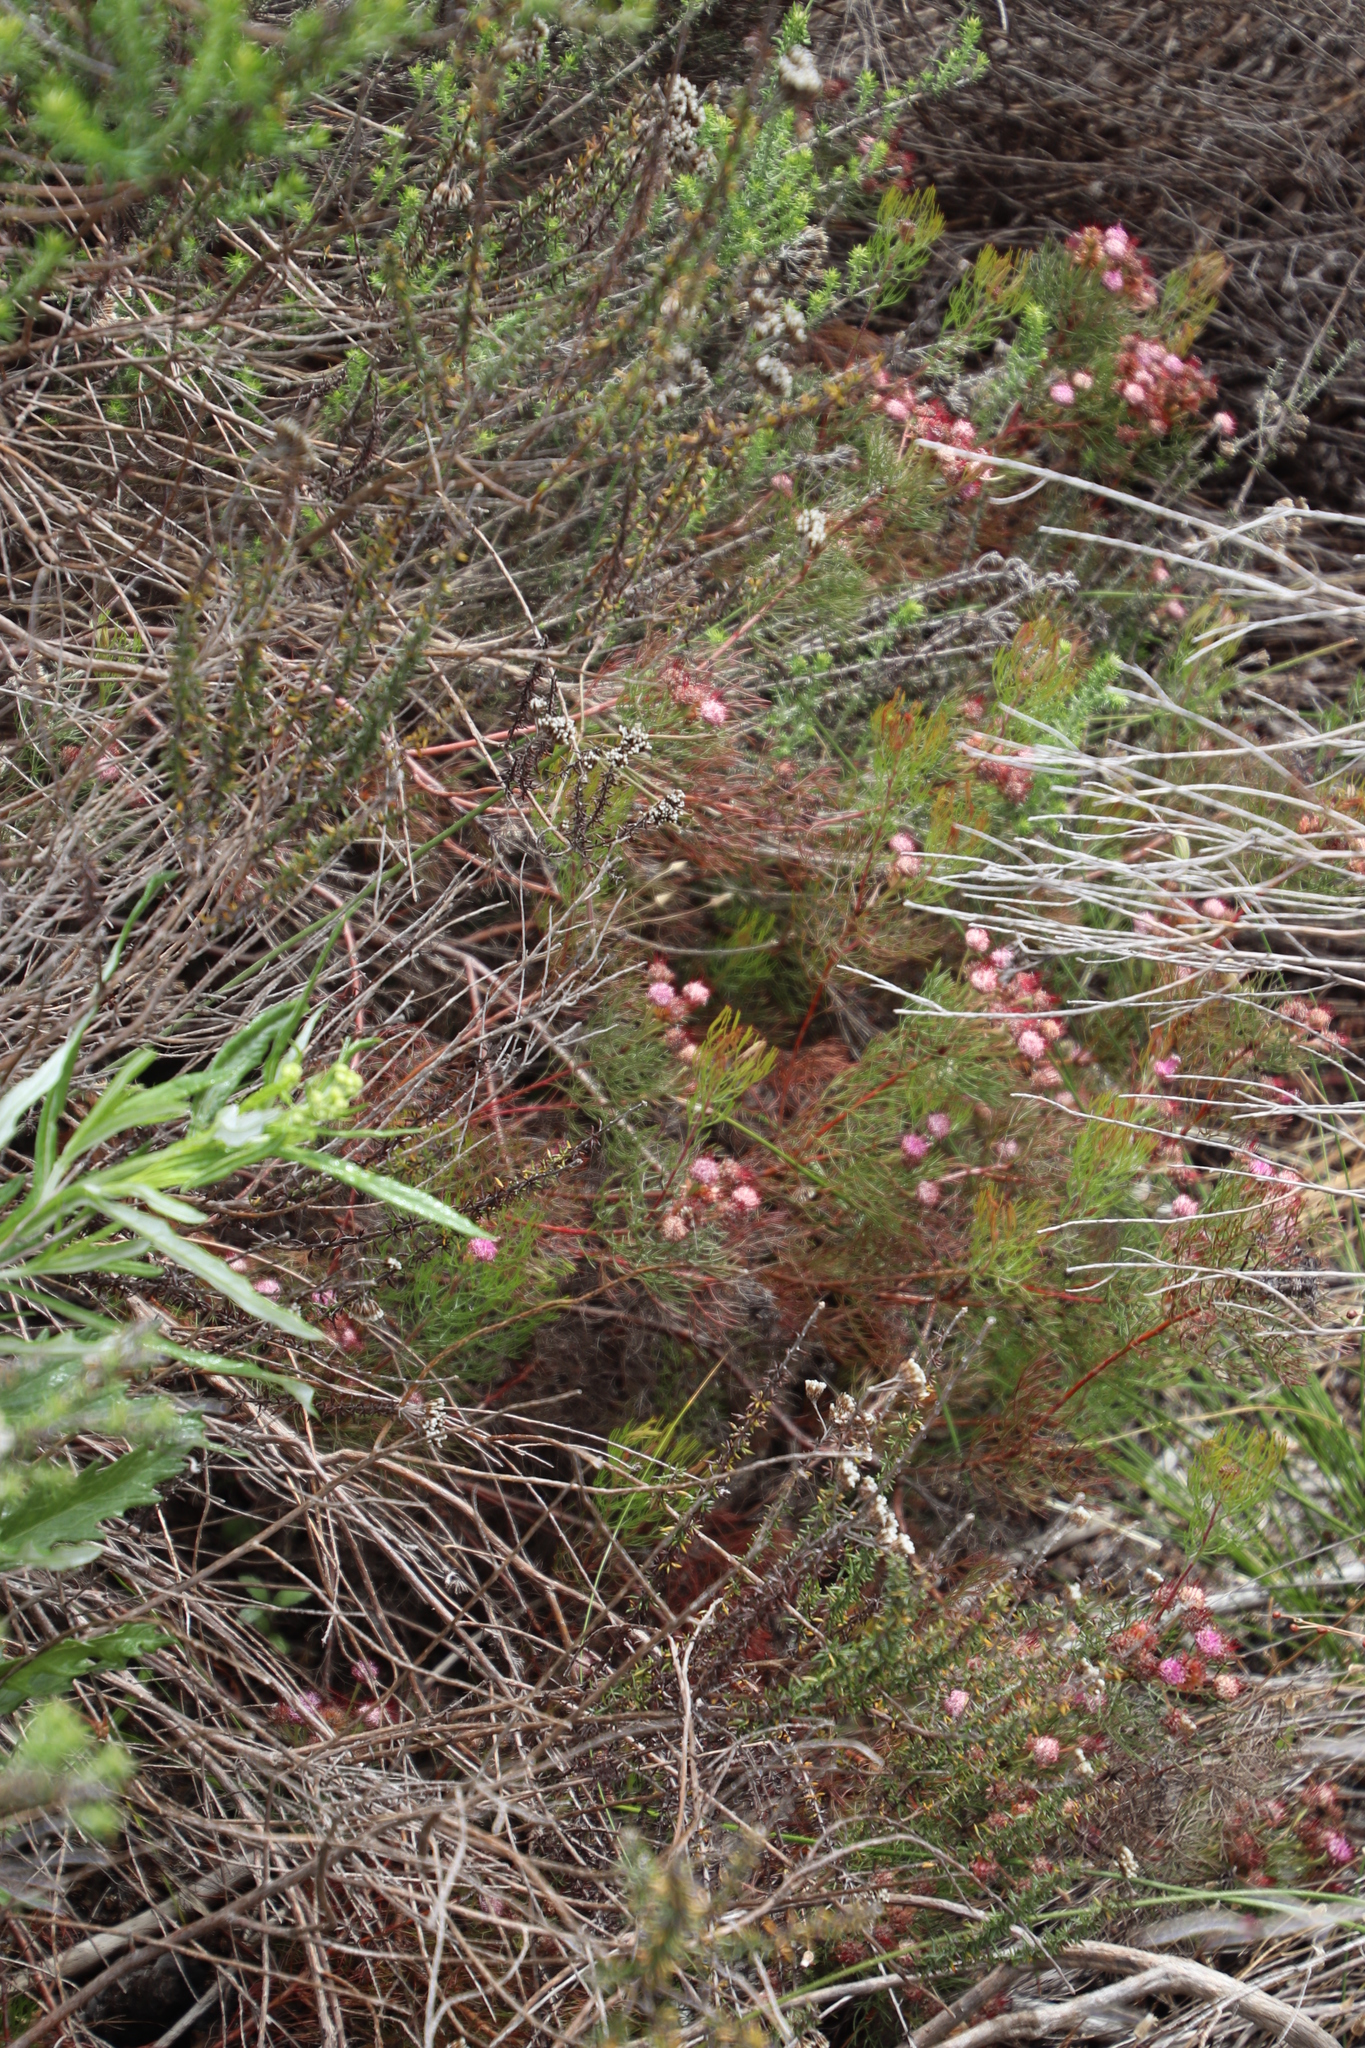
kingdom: Plantae
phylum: Tracheophyta
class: Magnoliopsida
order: Proteales
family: Proteaceae
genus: Serruria
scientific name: Serruria fasciflora
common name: Common pin spiderhead
